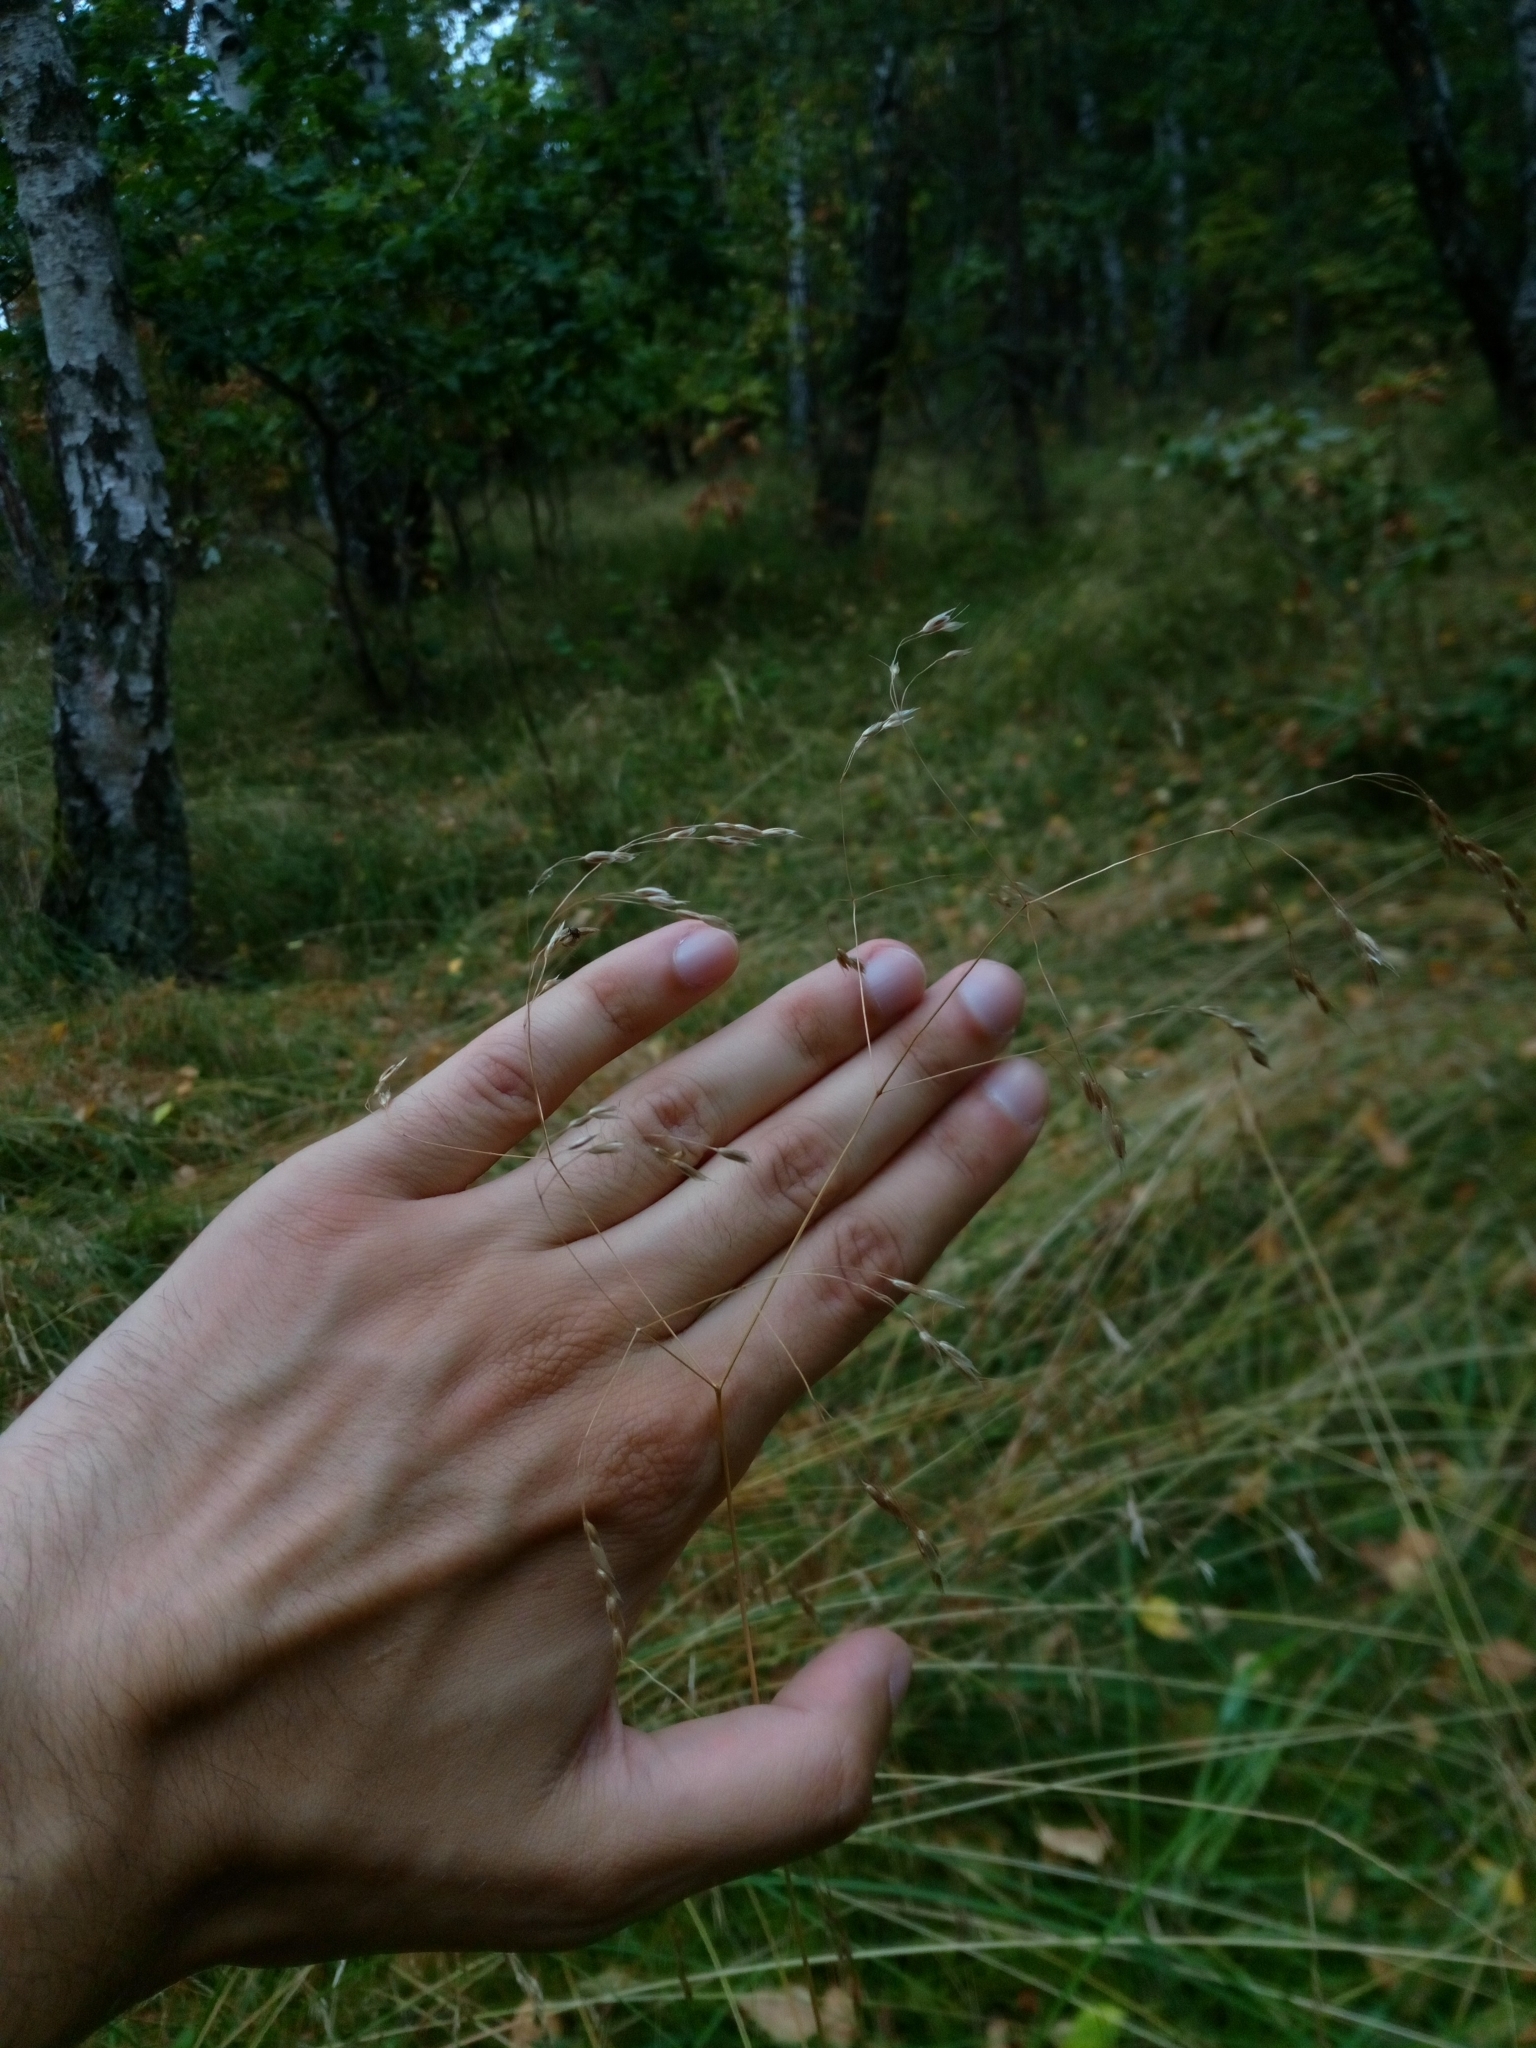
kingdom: Plantae
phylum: Tracheophyta
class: Liliopsida
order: Poales
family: Poaceae
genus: Avenella
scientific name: Avenella flexuosa
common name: Wavy hairgrass
